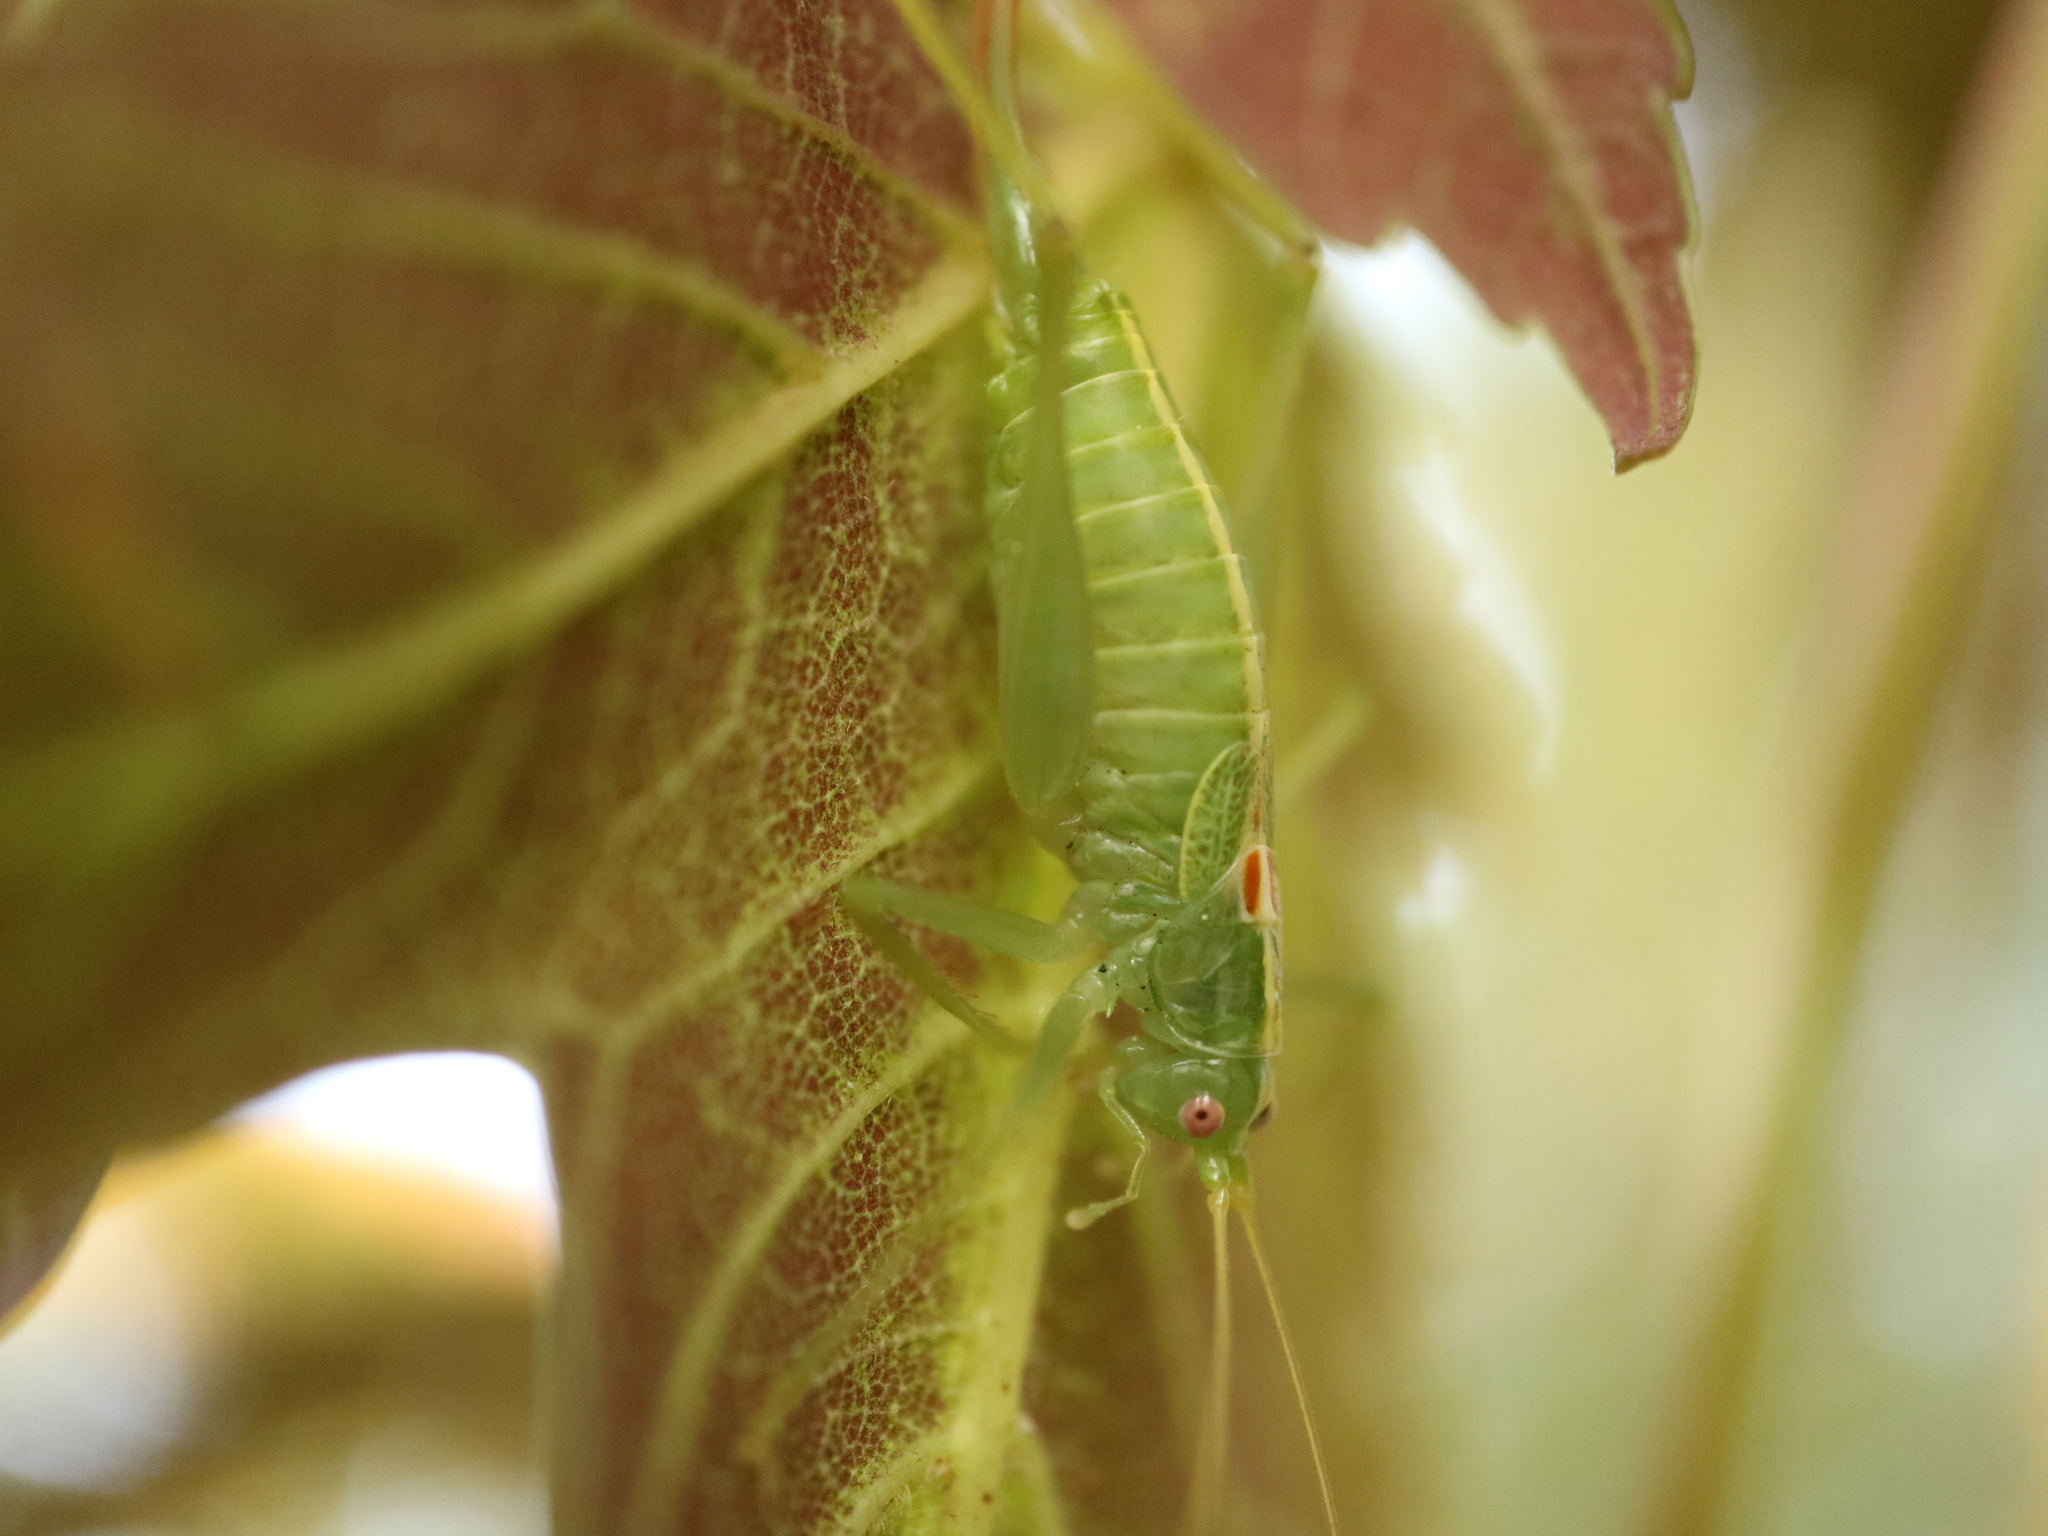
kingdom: Animalia
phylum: Arthropoda
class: Insecta
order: Orthoptera
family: Tettigoniidae
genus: Meconema
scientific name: Meconema meridionale
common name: Southern oak bush-cricket
